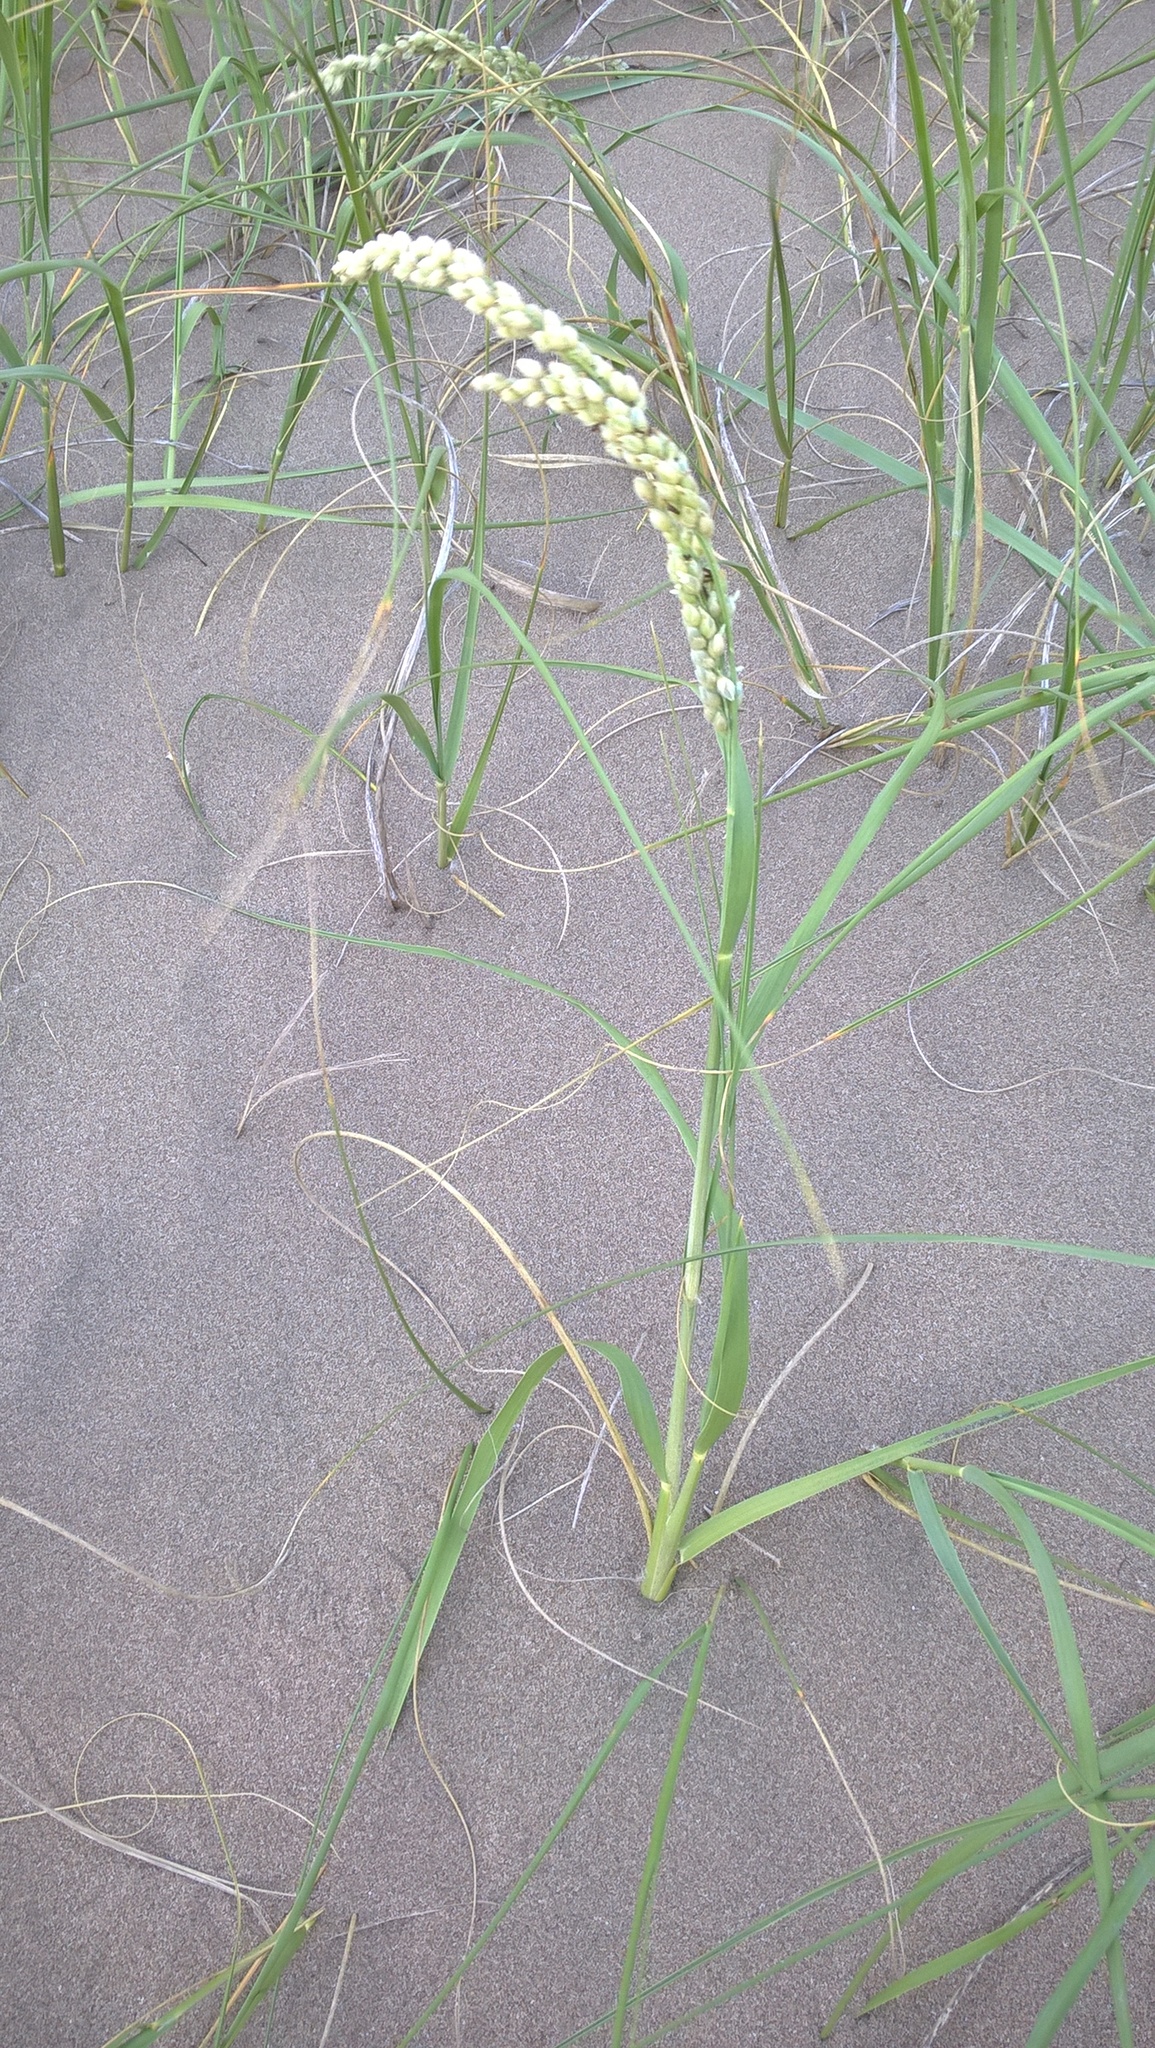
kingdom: Plantae
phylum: Tracheophyta
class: Liliopsida
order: Poales
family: Poaceae
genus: Panicum
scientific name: Panicum racemosum
